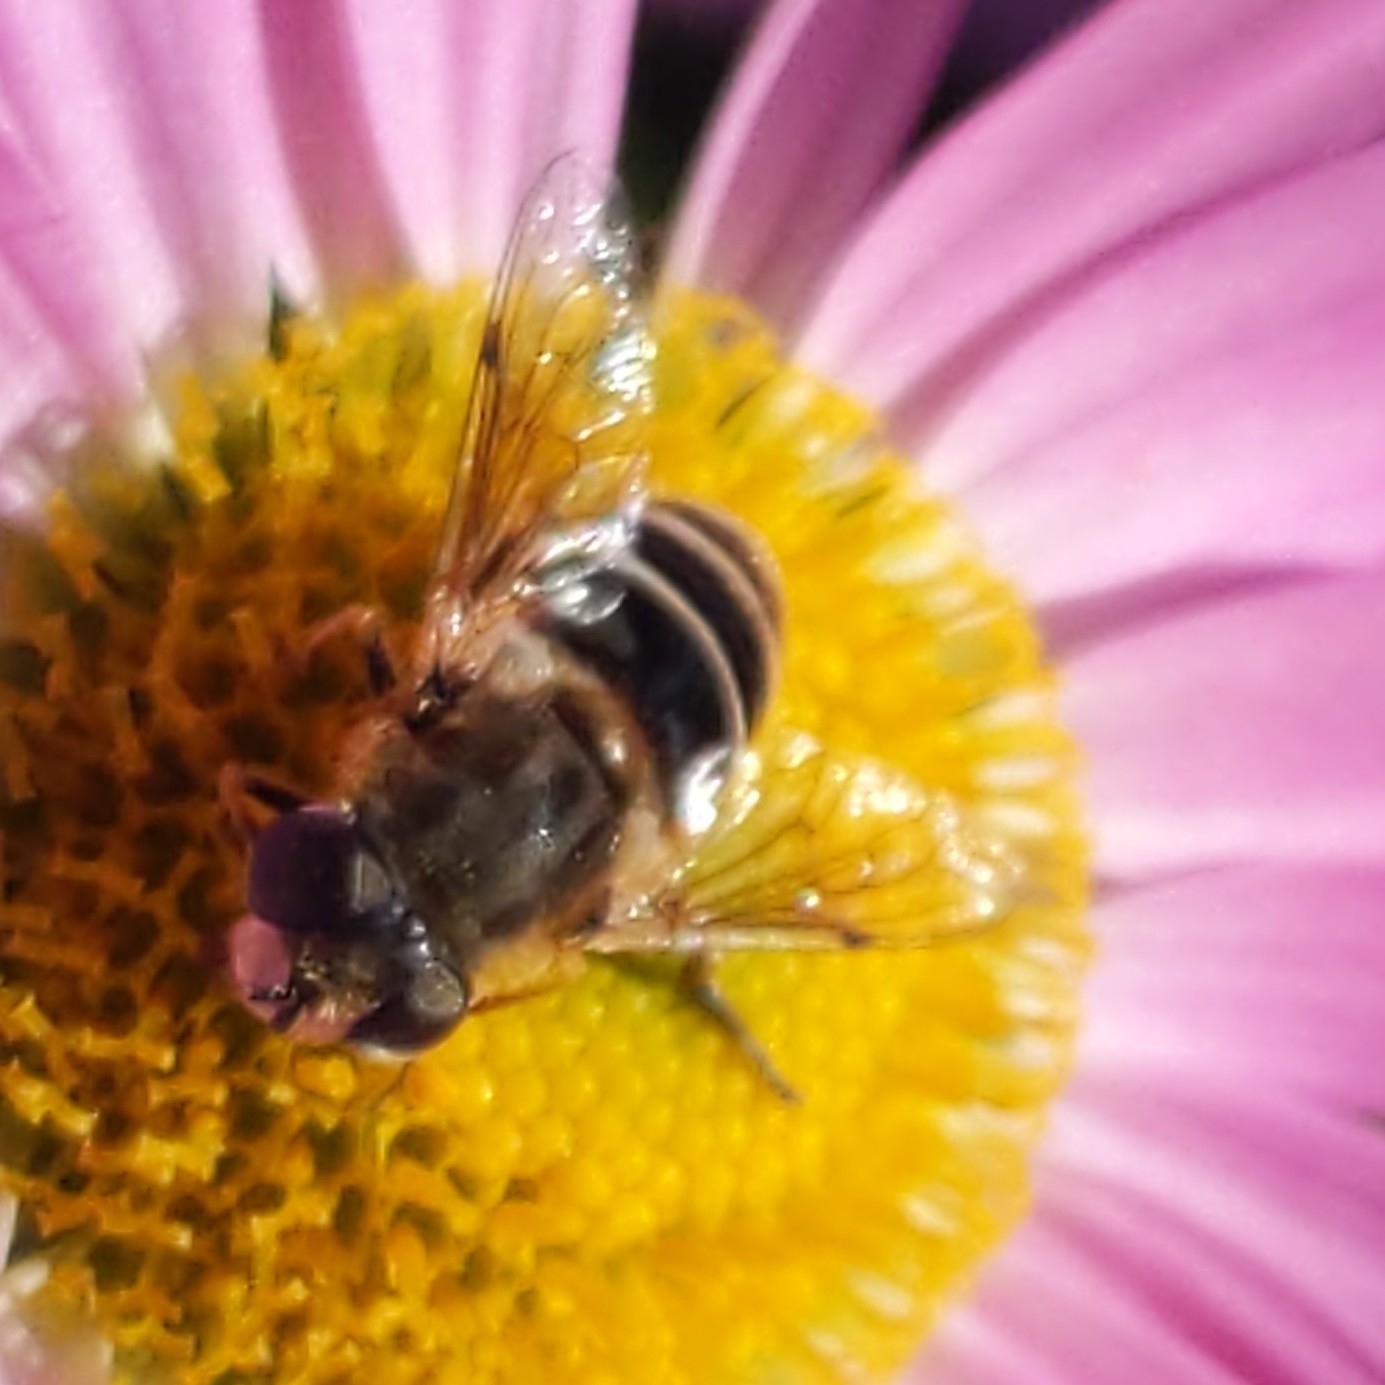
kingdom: Animalia
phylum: Arthropoda
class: Insecta
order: Diptera
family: Syrphidae
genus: Eristalis
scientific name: Eristalis arbustorum
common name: Hover fly
